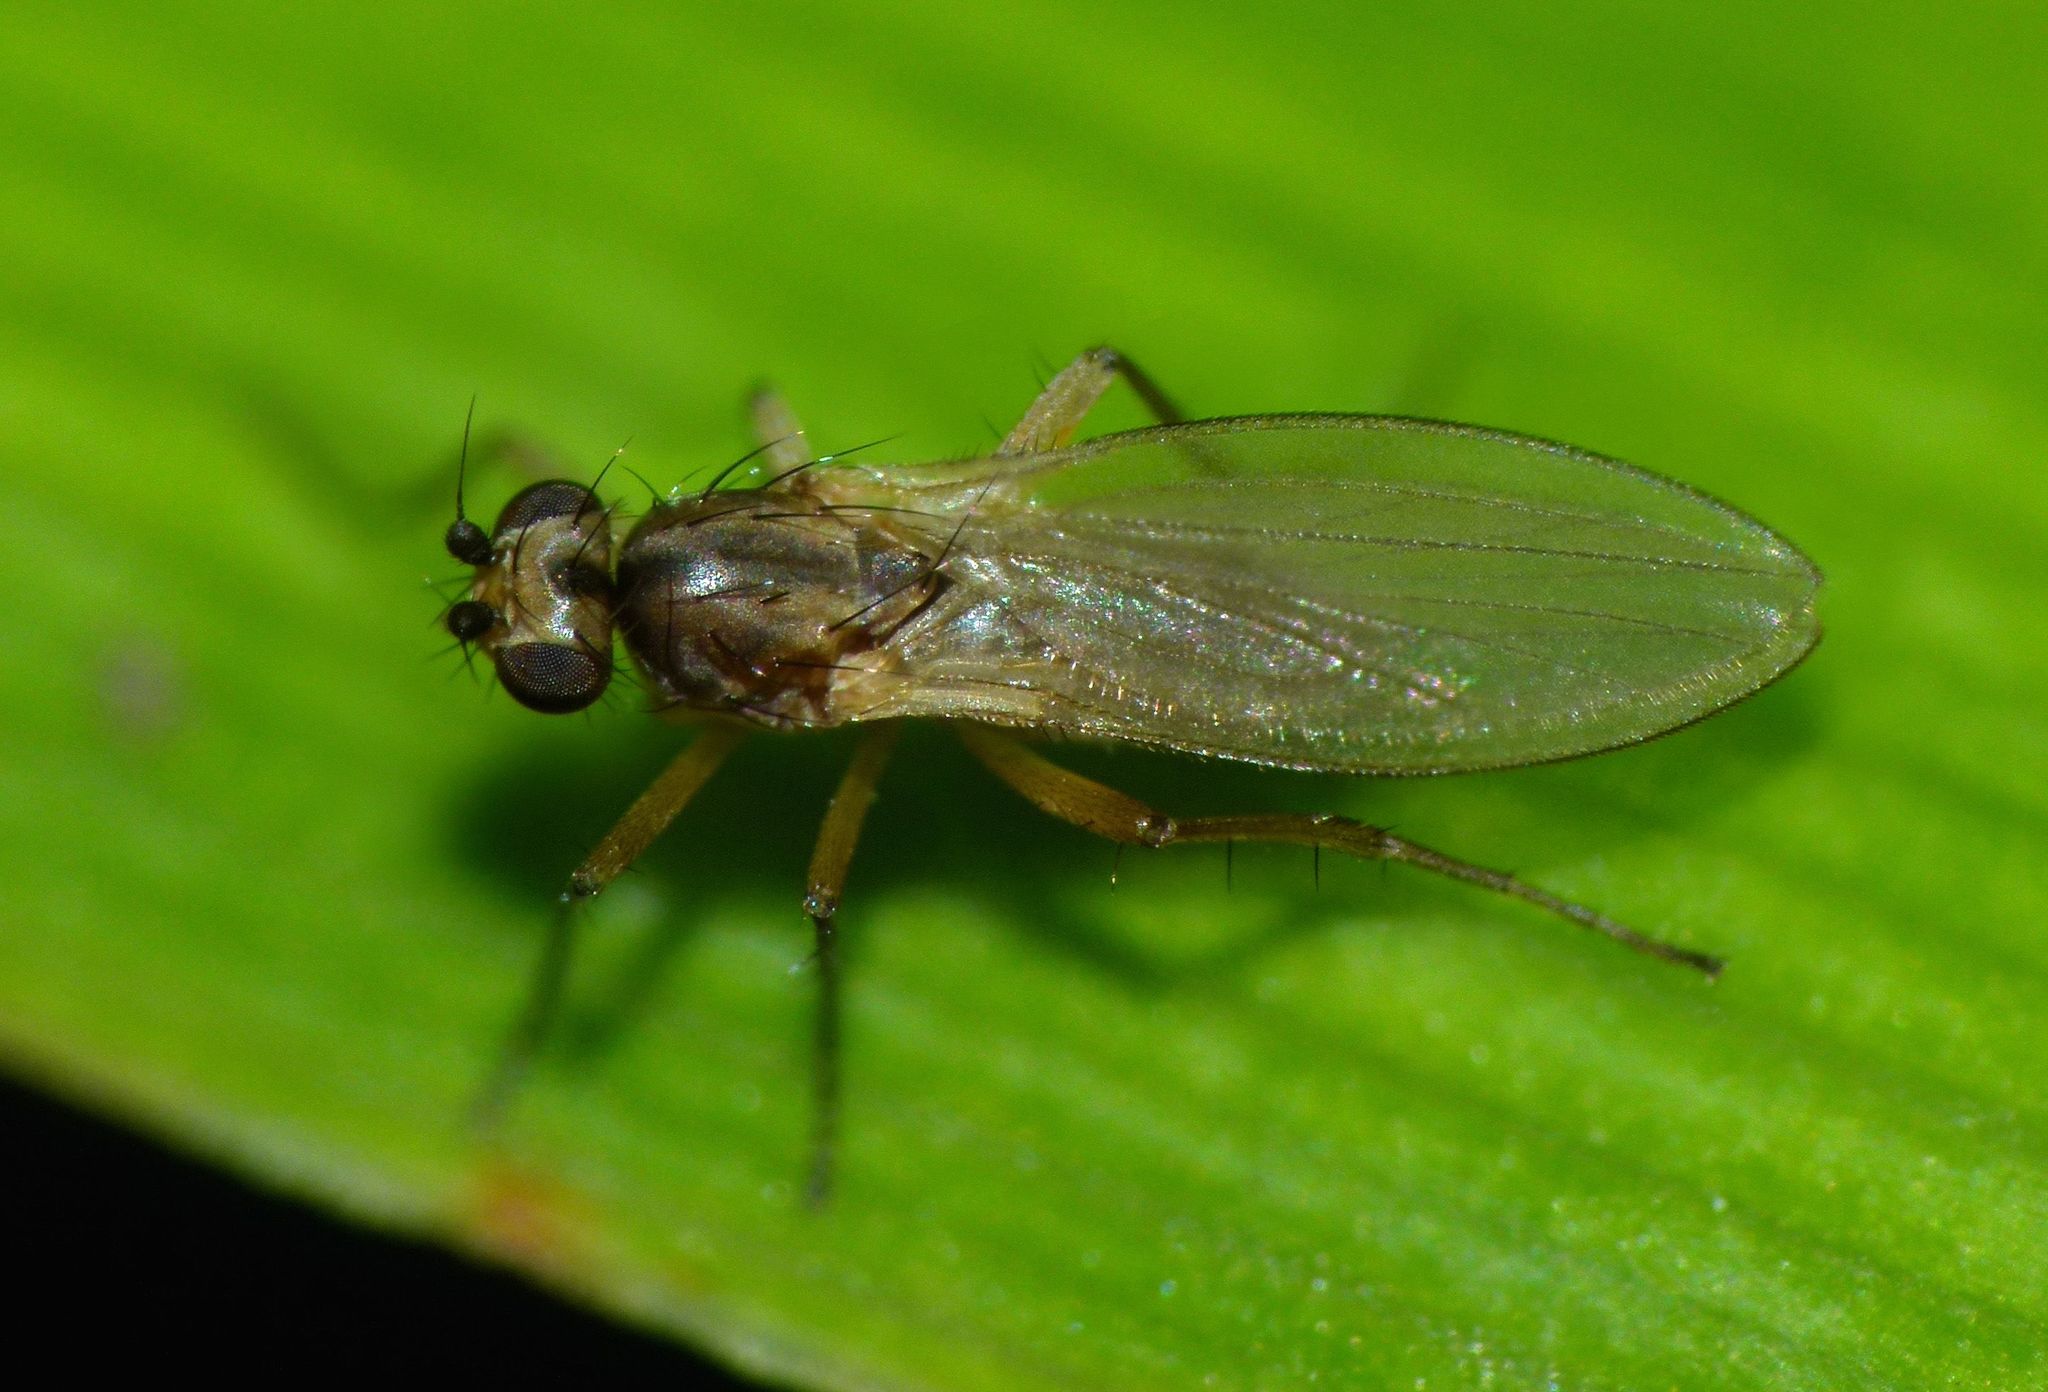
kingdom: Animalia
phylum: Arthropoda
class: Insecta
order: Diptera
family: Lonchopteridae
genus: Lonchoptera
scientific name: Lonchoptera bifurcata
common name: Spear-winged fly
